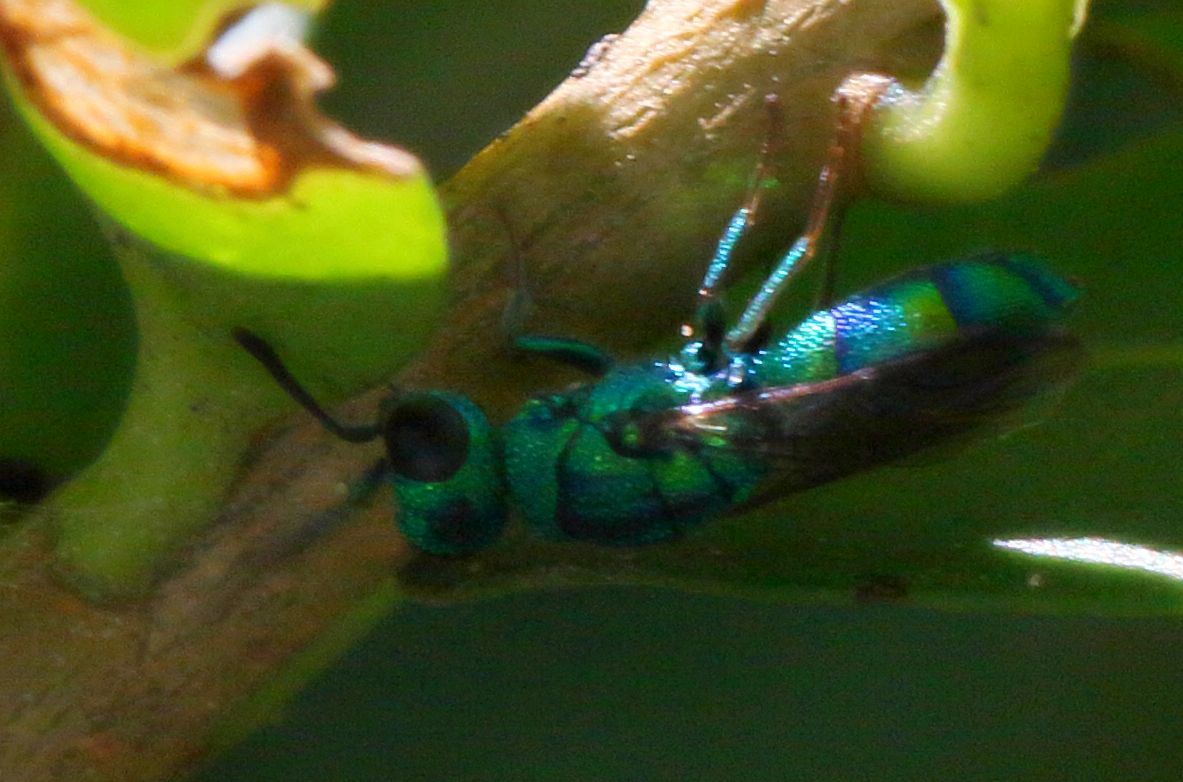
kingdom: Animalia
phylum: Arthropoda
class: Insecta
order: Hymenoptera
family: Chrysididae
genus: Trichrysis
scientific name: Trichrysis
